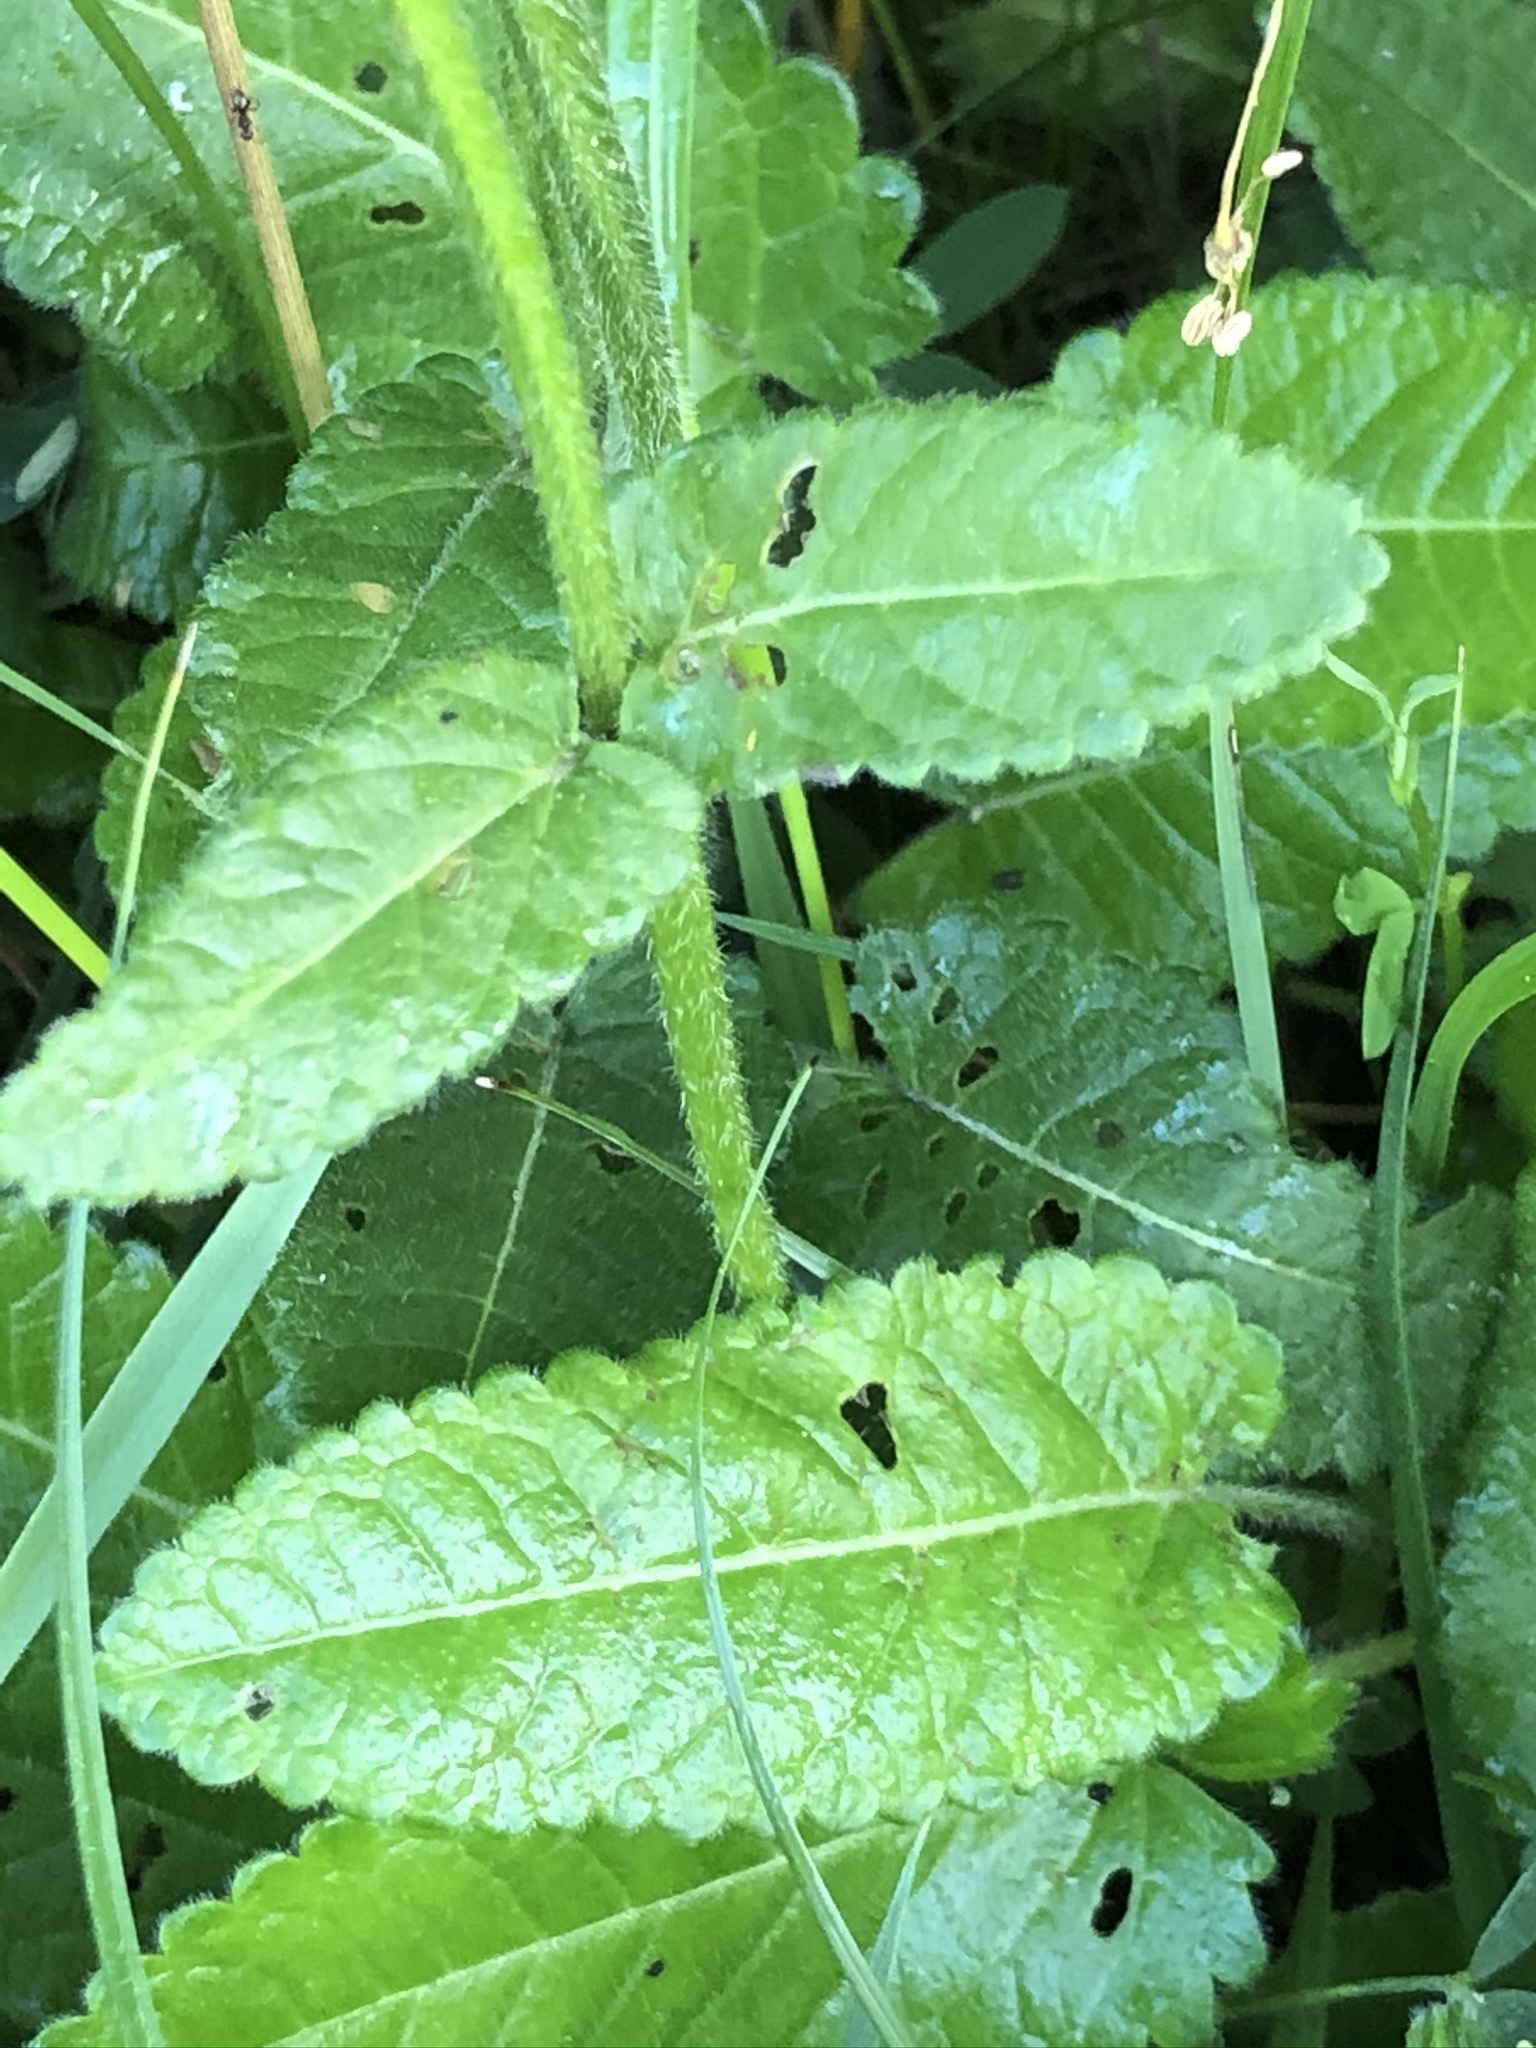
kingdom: Plantae
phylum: Tracheophyta
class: Magnoliopsida
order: Lamiales
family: Lamiaceae
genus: Betonica
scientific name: Betonica officinalis
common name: Bishop's-wort
